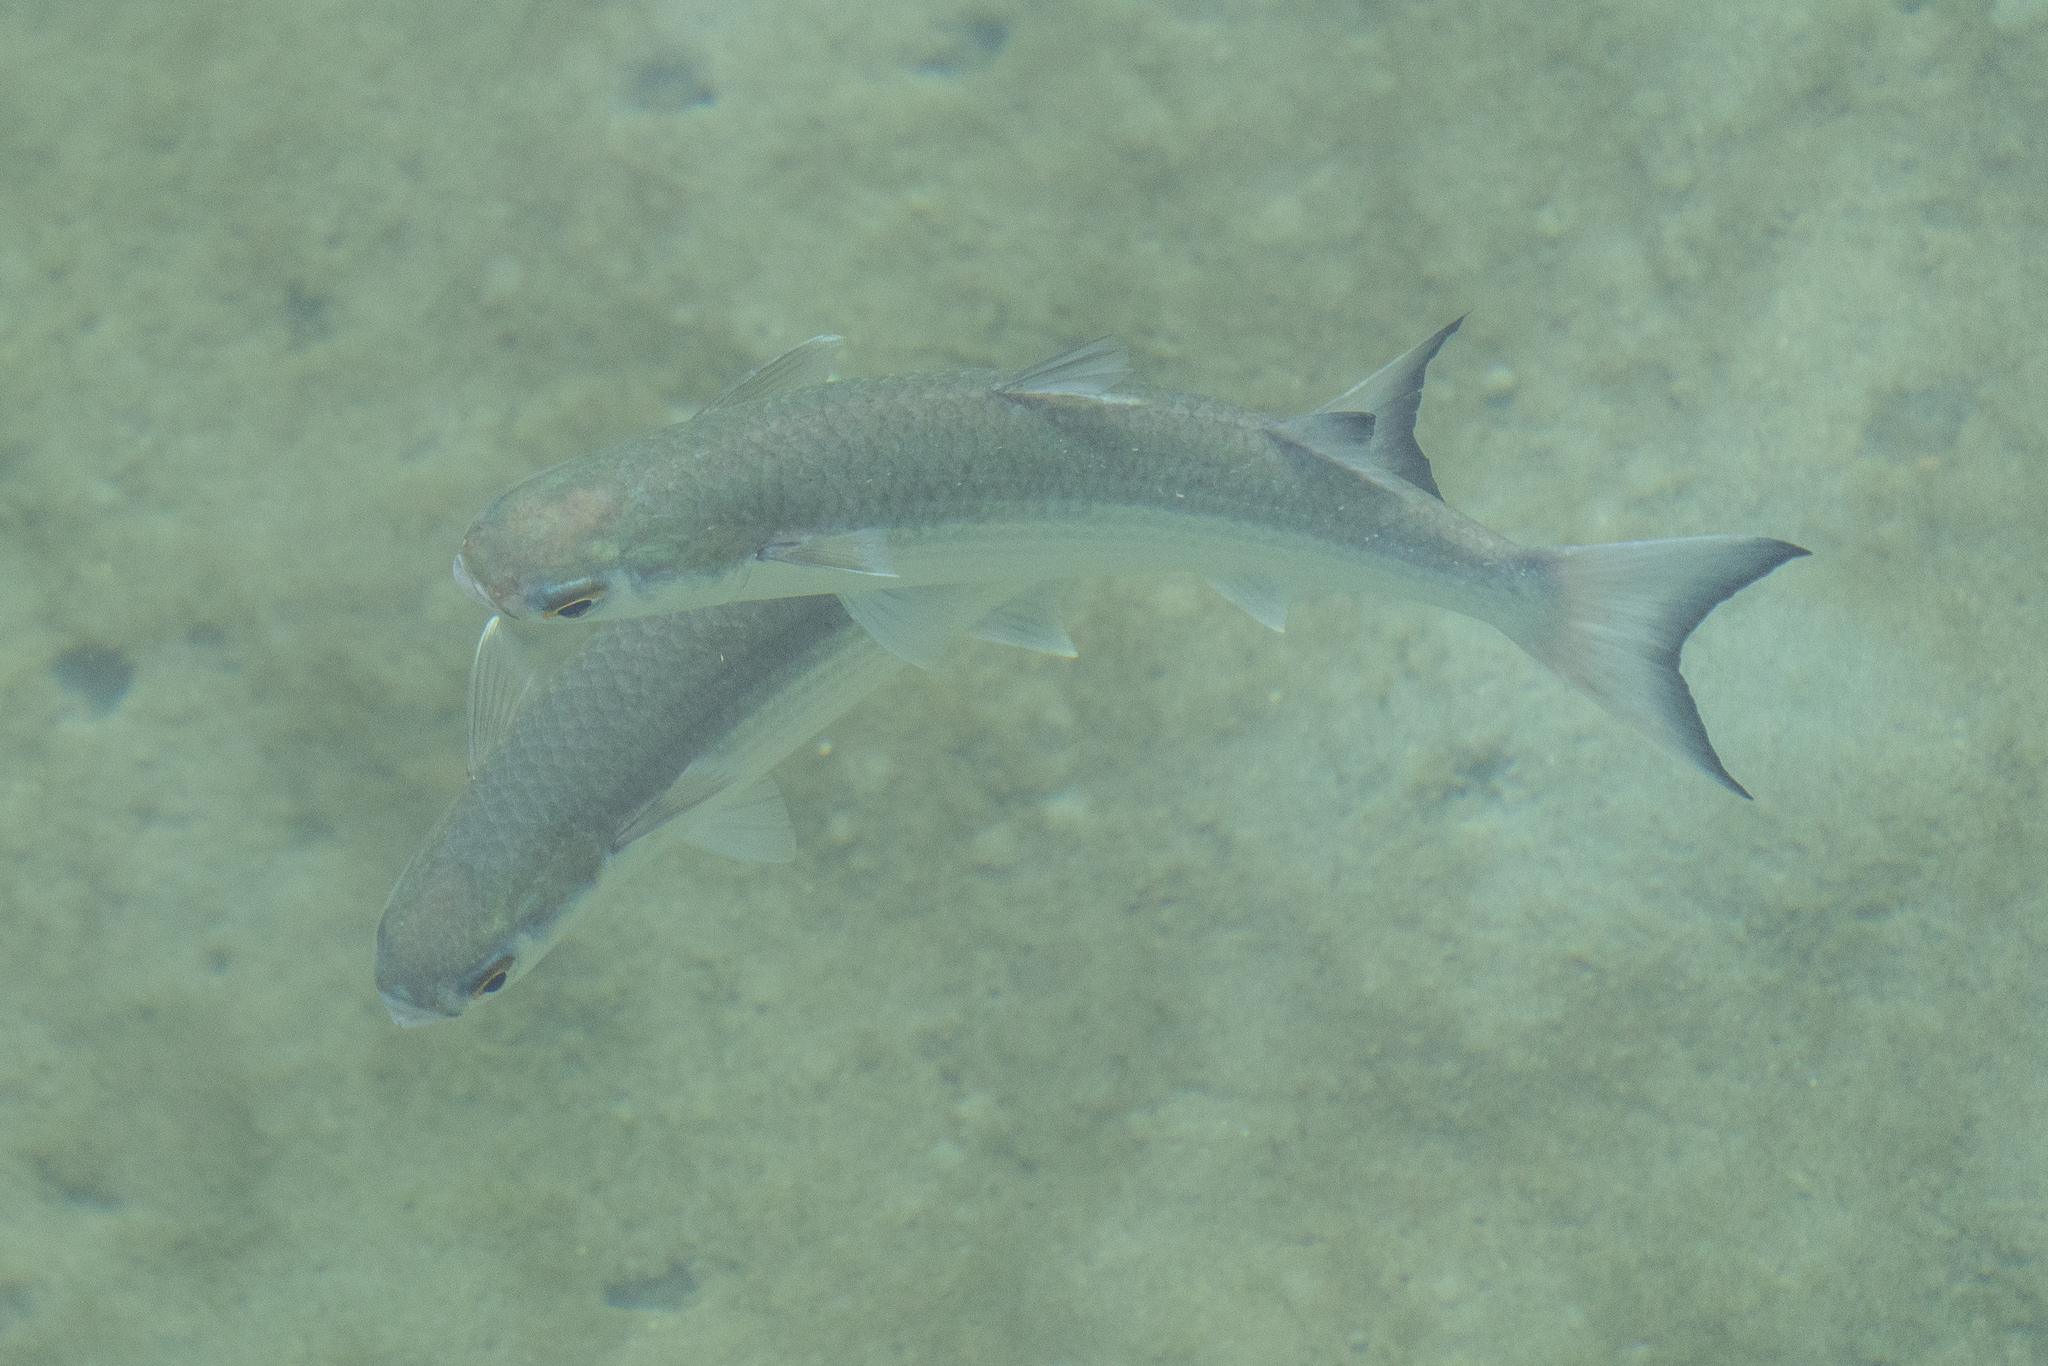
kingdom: Animalia
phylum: Chordata
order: Mugiliformes
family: Mugilidae
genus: Mugil
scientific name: Mugil curema
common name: White mullet
